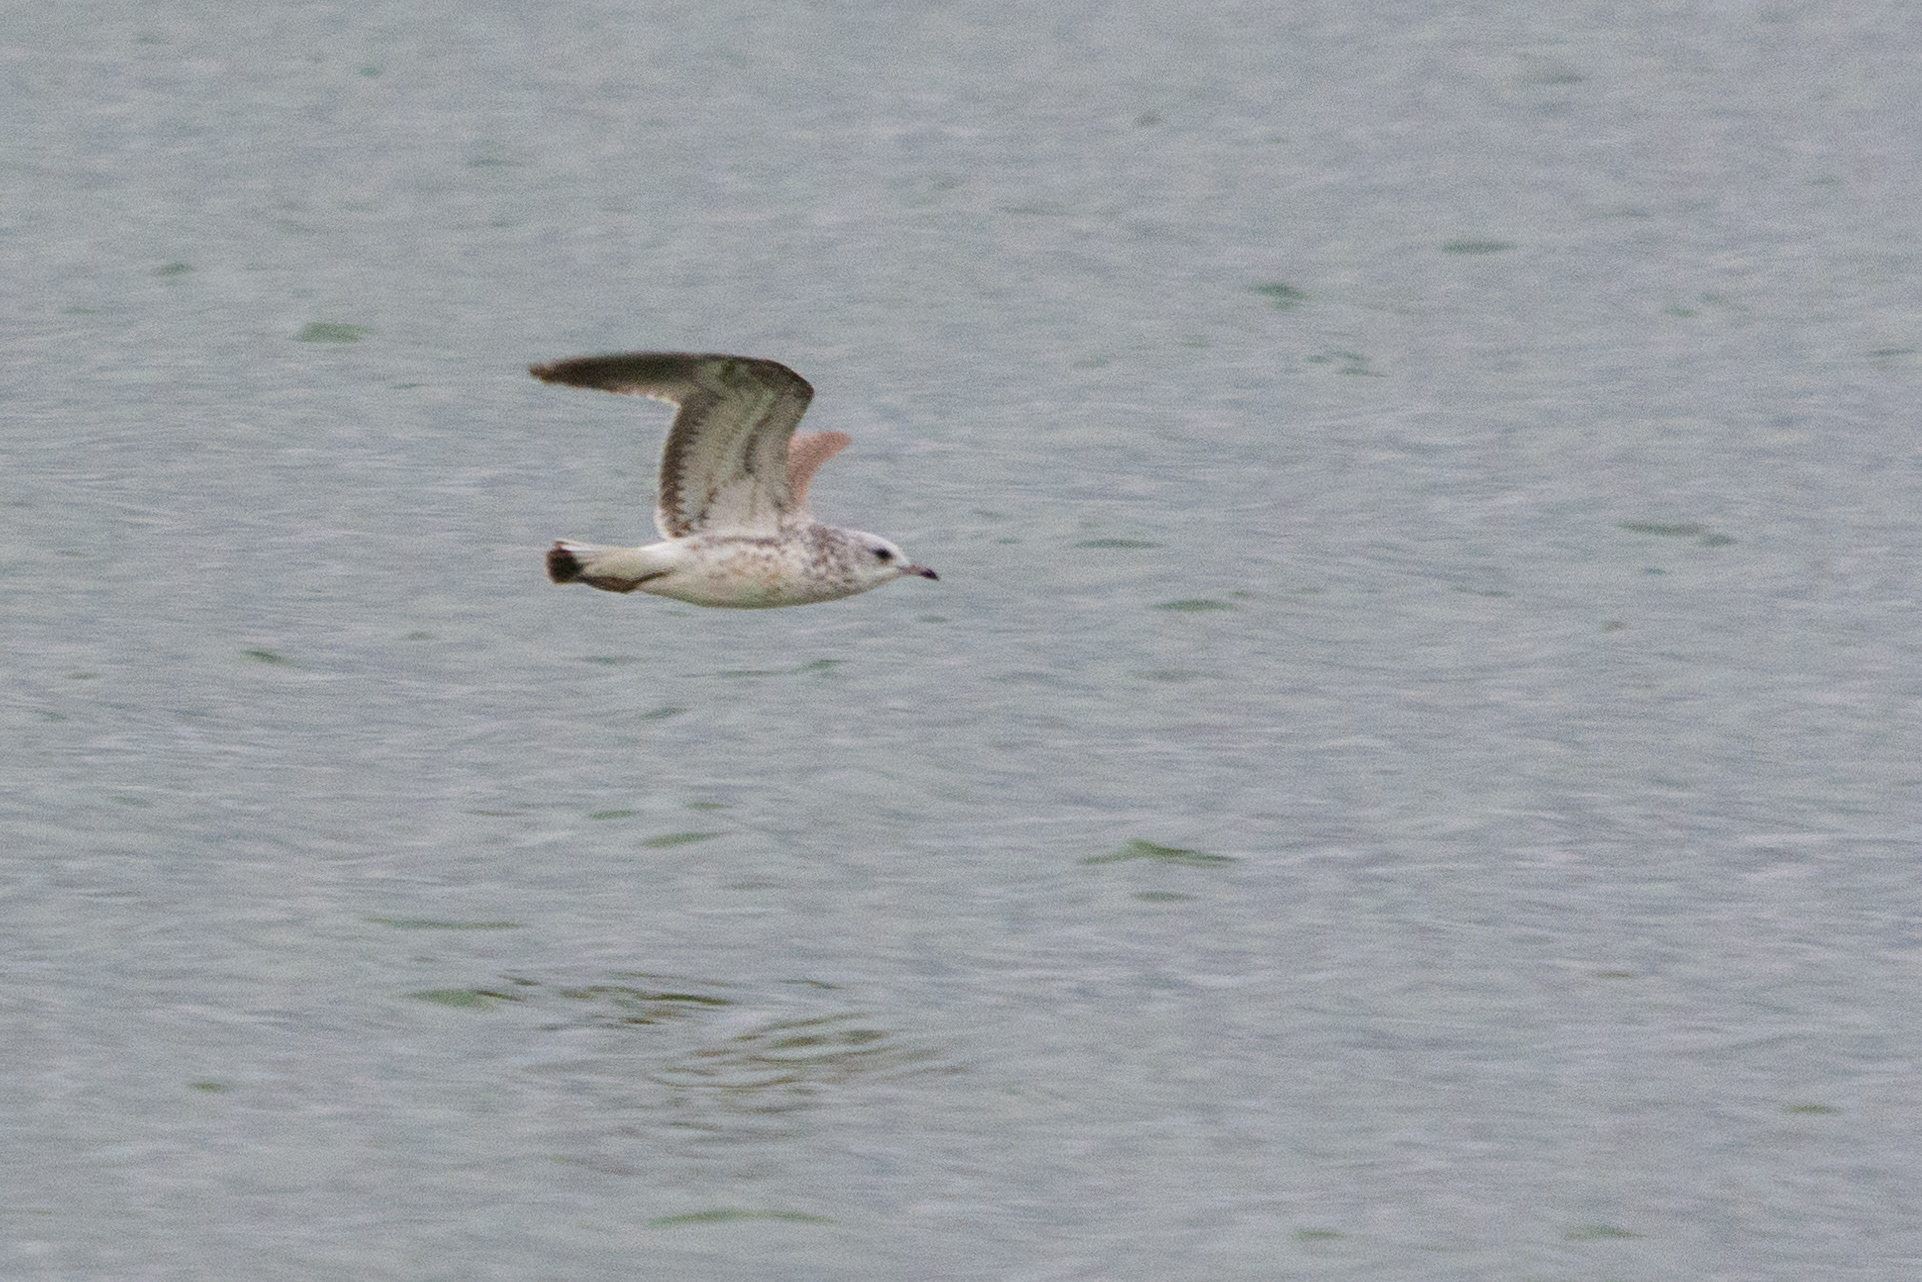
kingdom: Animalia
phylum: Chordata
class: Aves
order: Charadriiformes
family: Laridae
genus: Larus
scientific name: Larus canus
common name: Mew gull
